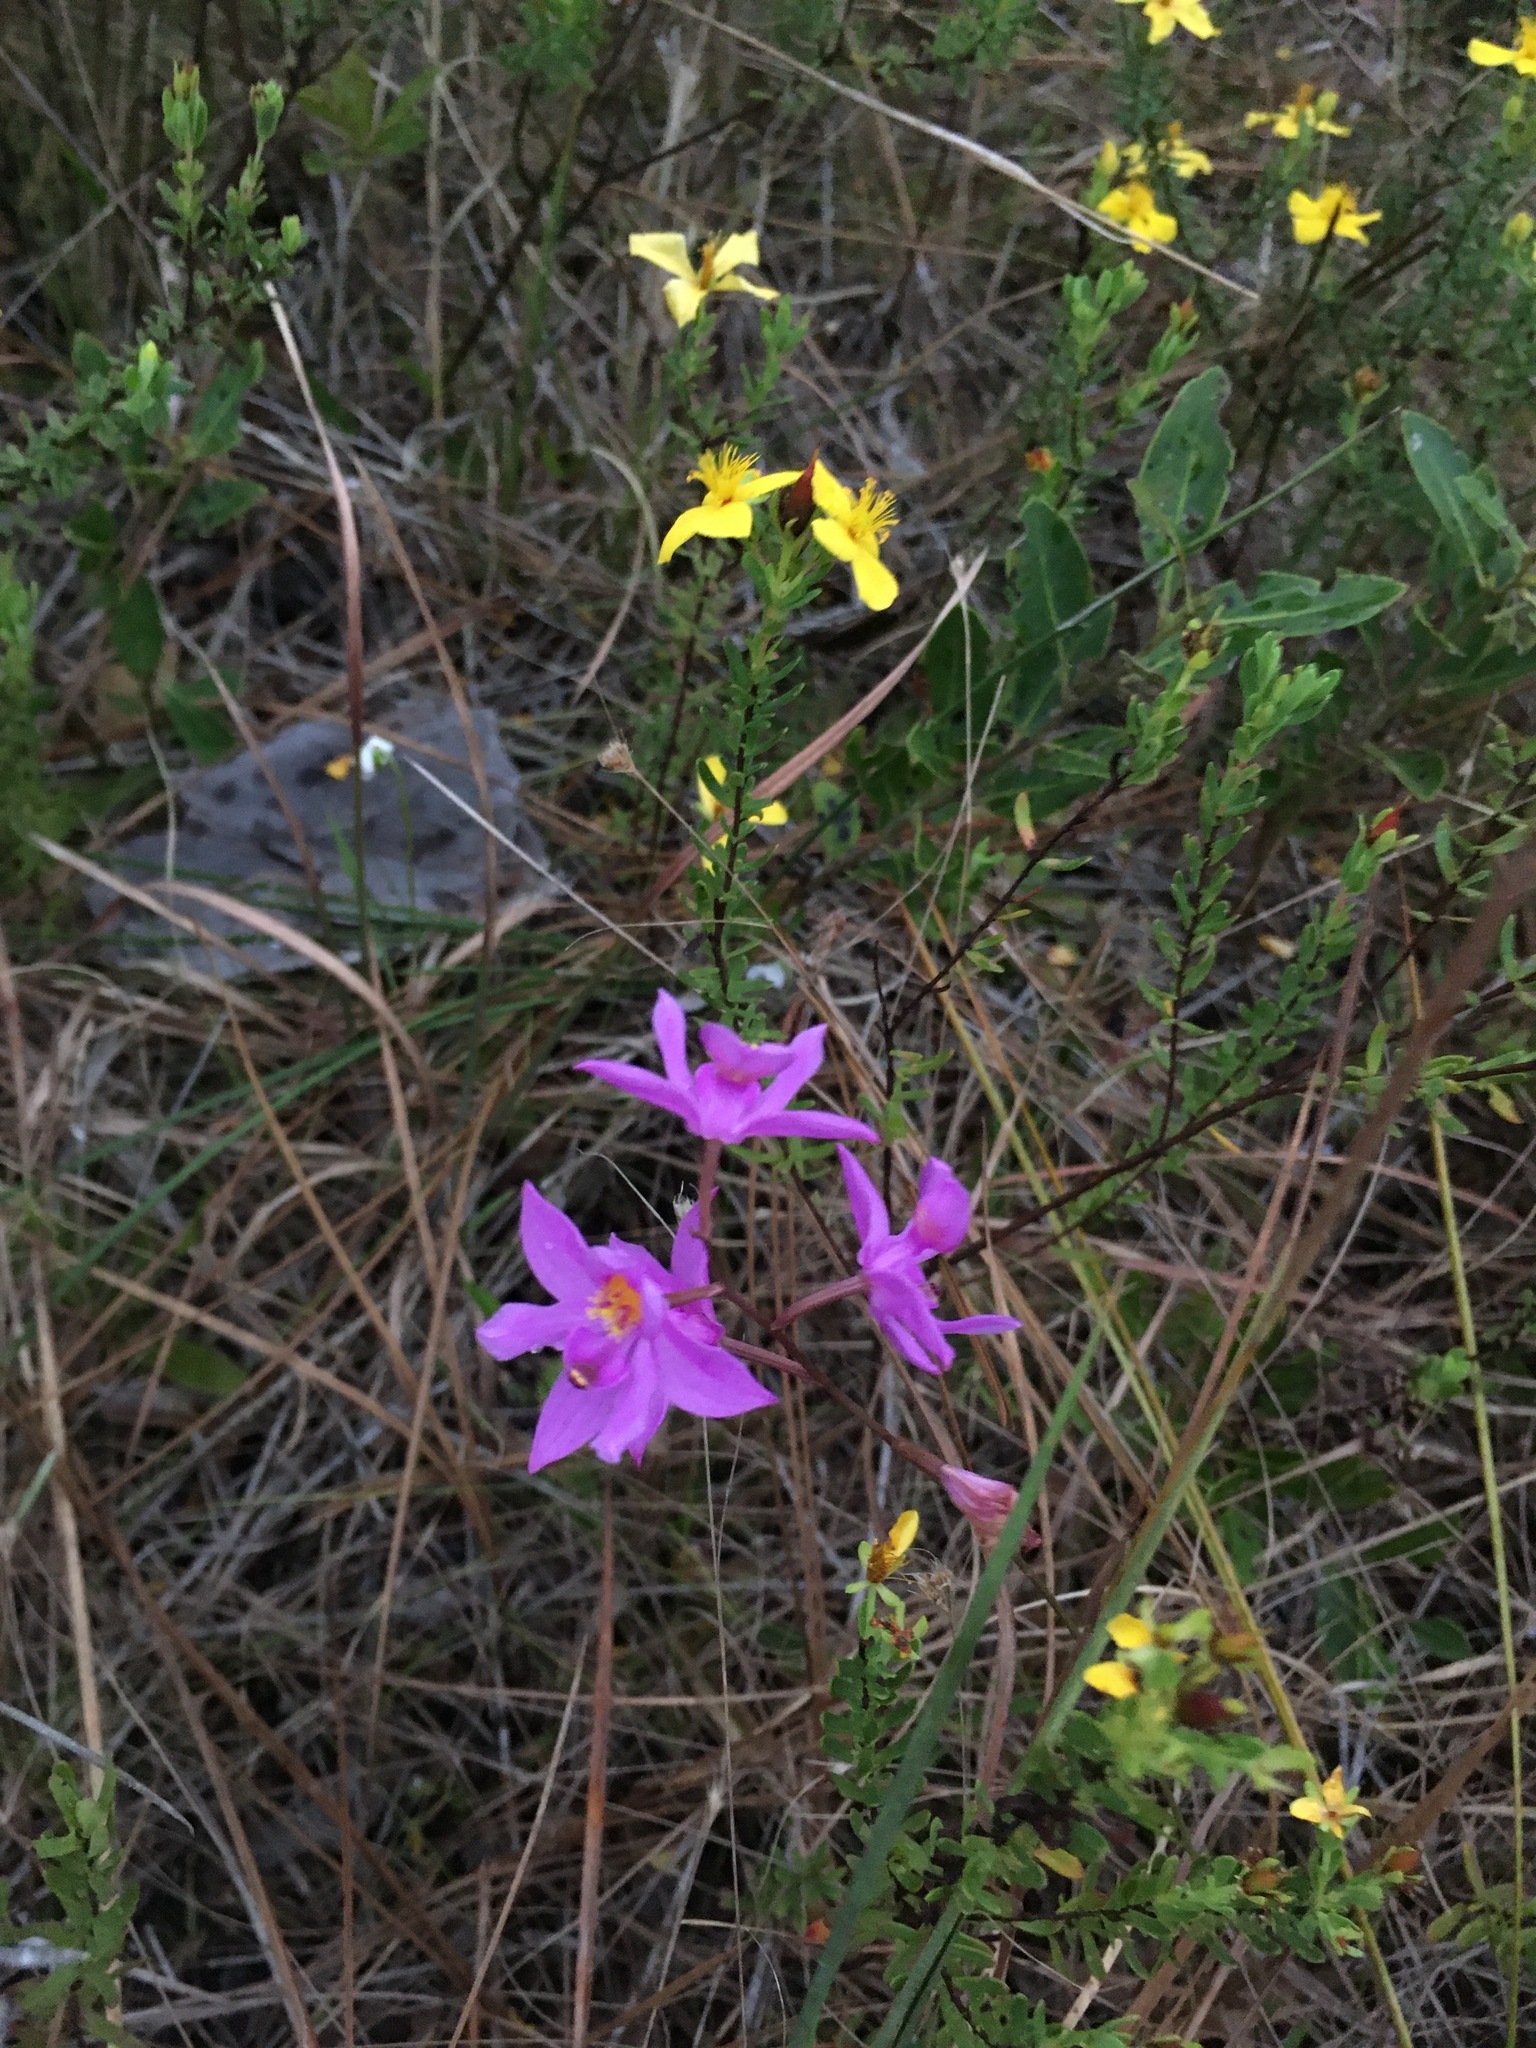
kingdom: Plantae
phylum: Tracheophyta
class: Liliopsida
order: Asparagales
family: Orchidaceae
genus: Calopogon
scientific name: Calopogon barbatus
